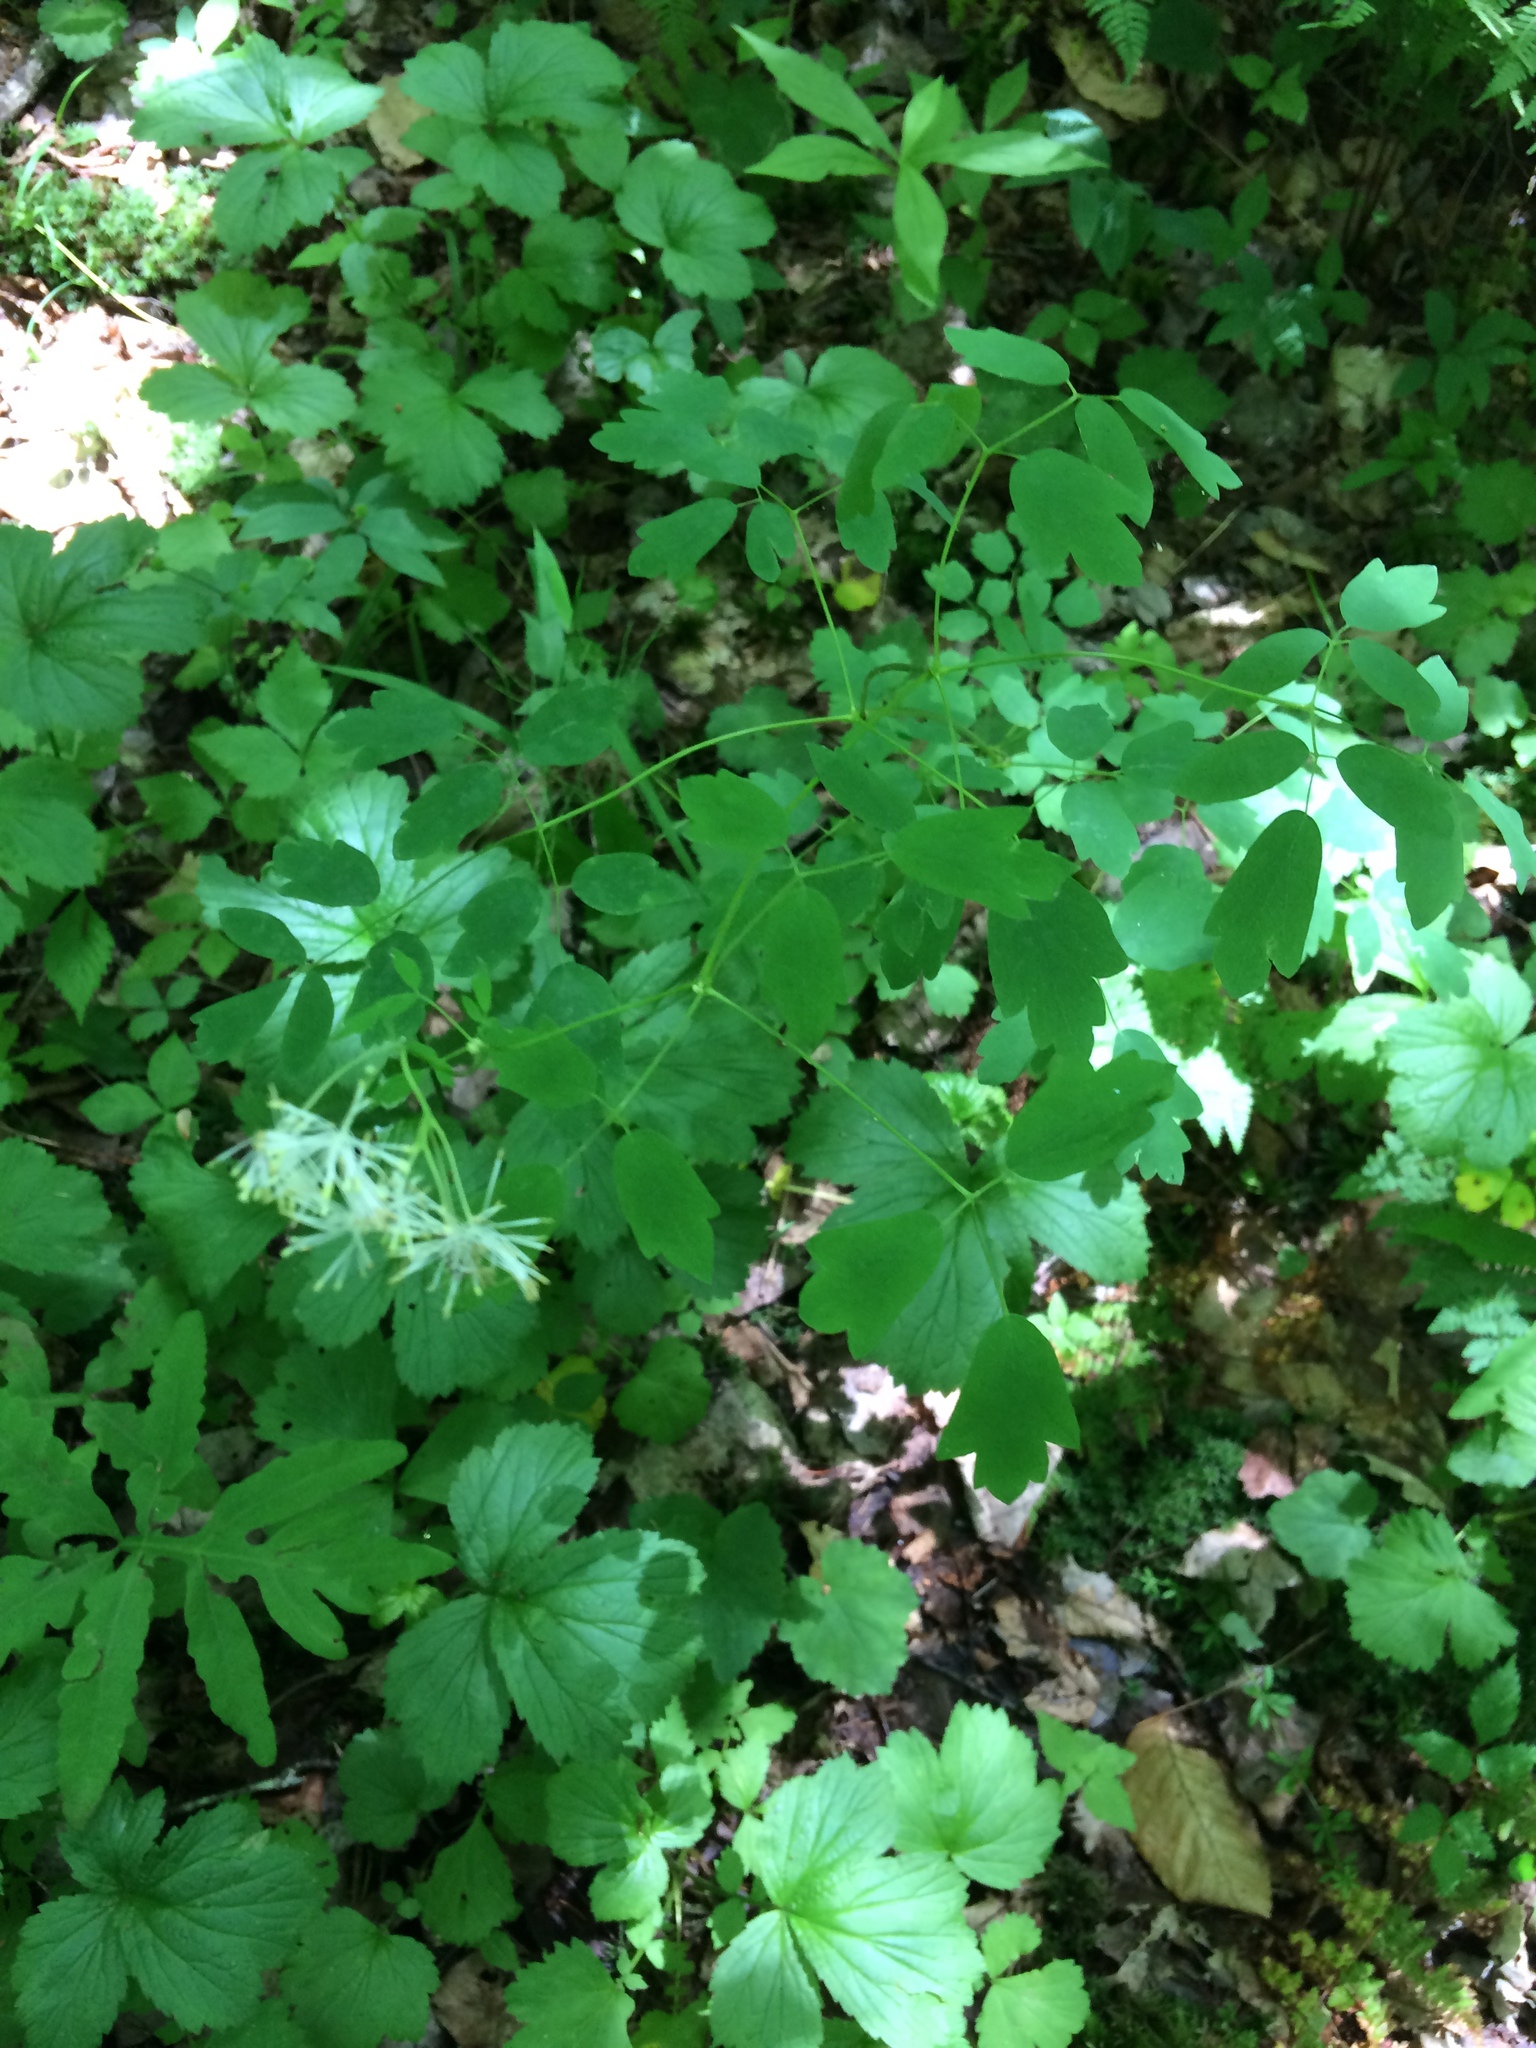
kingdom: Plantae
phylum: Tracheophyta
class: Magnoliopsida
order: Ranunculales
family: Ranunculaceae
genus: Thalictrum
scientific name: Thalictrum pubescens
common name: King-of-the-meadow
